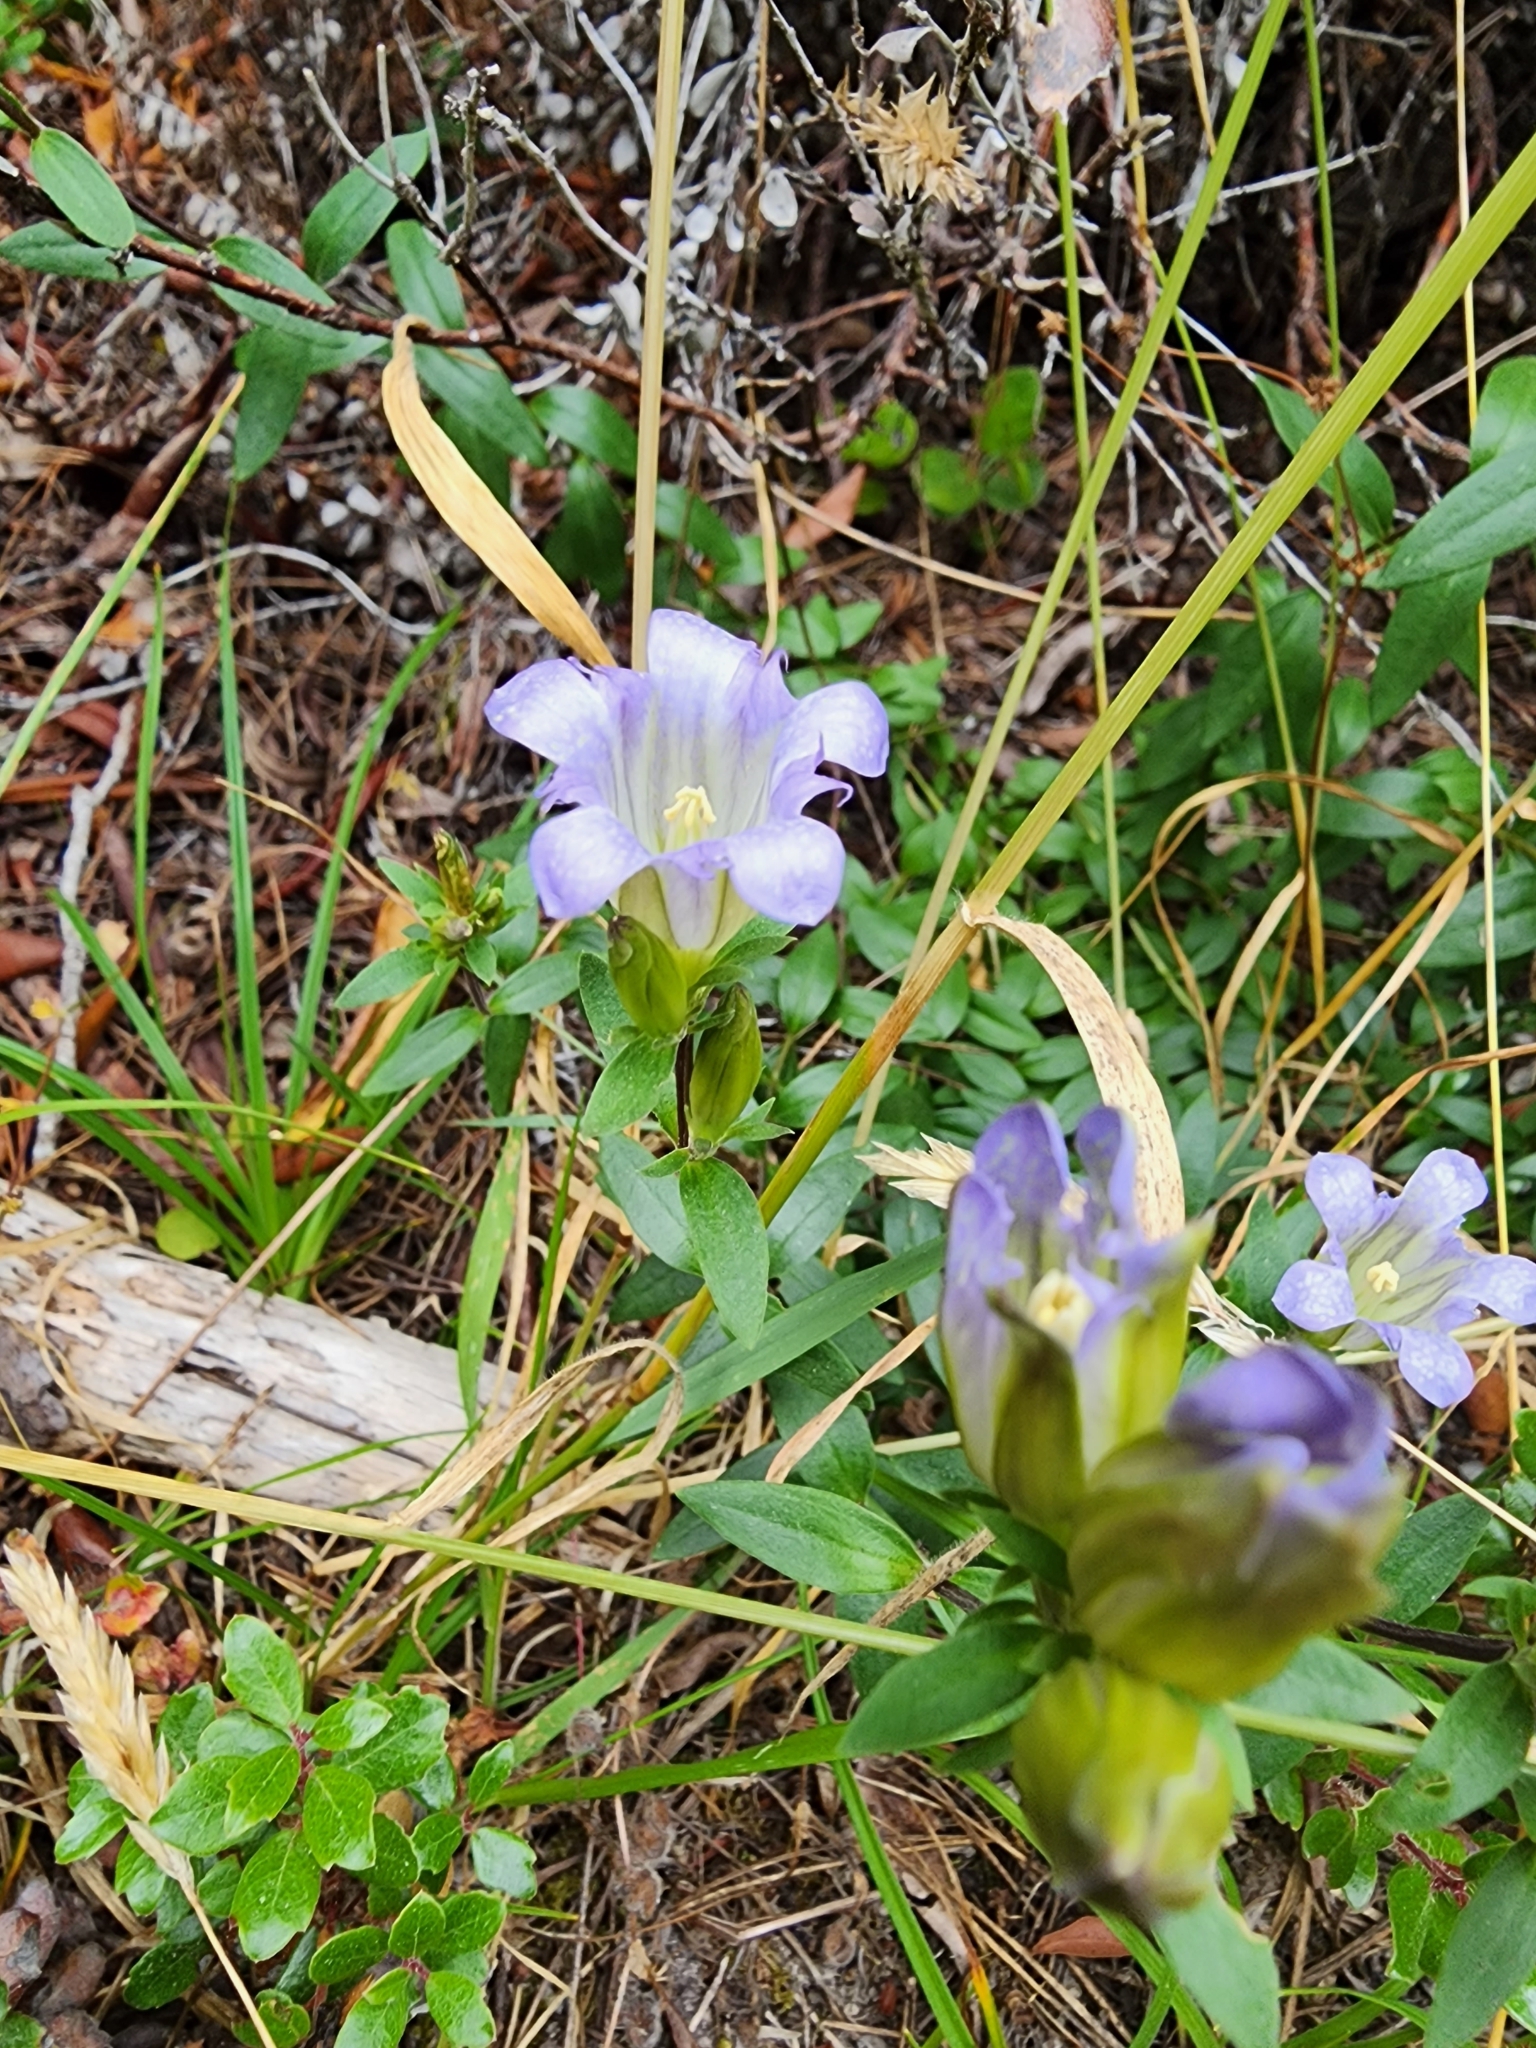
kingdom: Plantae
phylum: Tracheophyta
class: Magnoliopsida
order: Gentianales
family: Gentianaceae
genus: Gentiana
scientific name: Gentiana affinis
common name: Rocky mountain gentian
